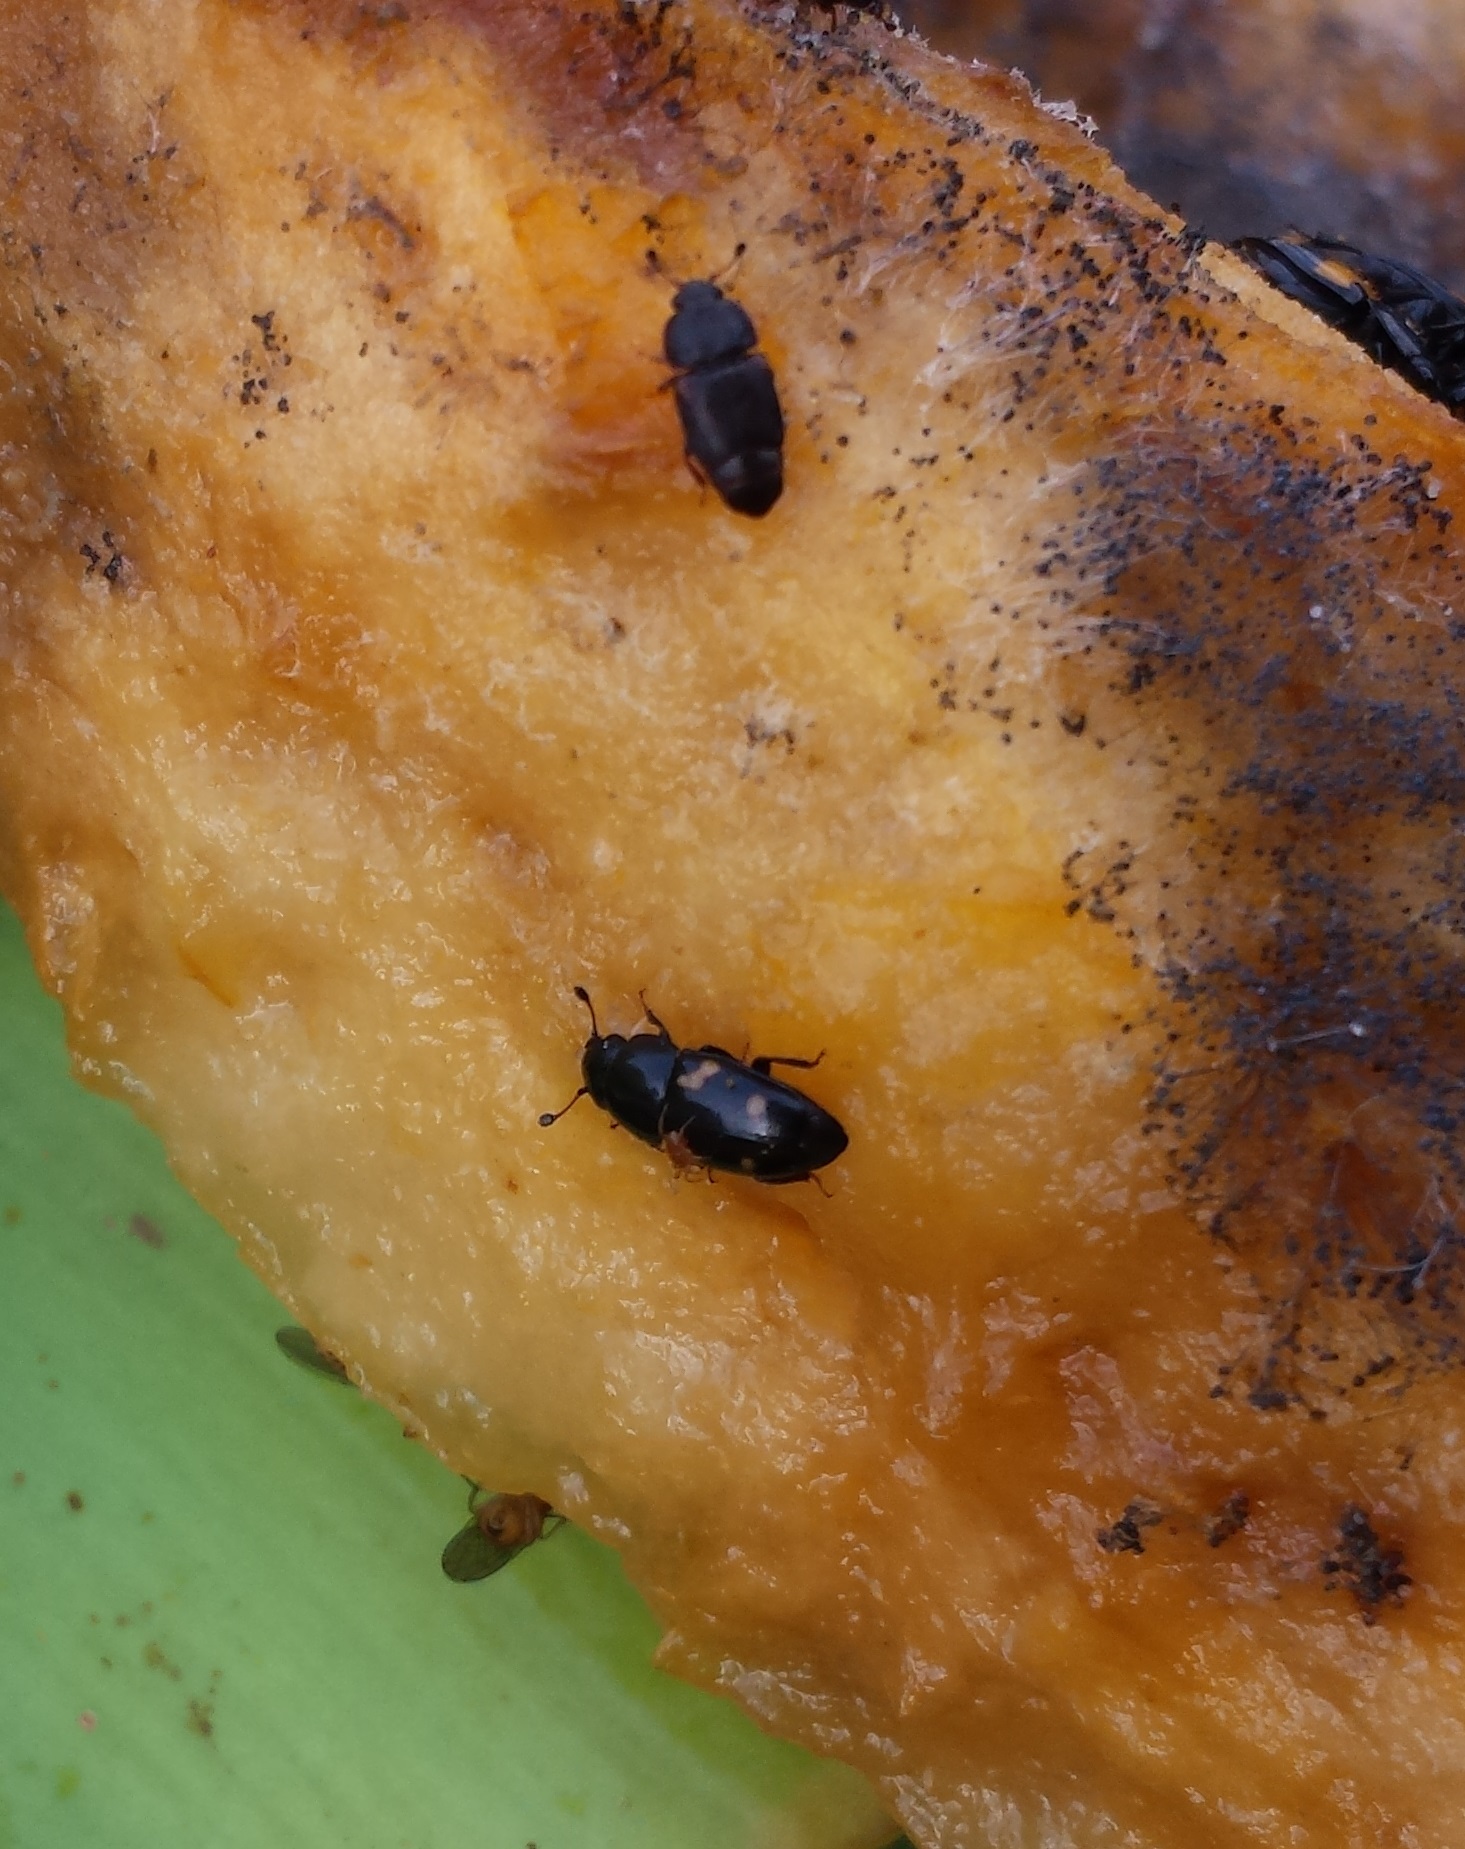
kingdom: Animalia
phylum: Arthropoda
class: Insecta
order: Coleoptera
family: Nitidulidae
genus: Glischrochilus
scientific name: Glischrochilus quadrisignatus
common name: Picnic beetle
